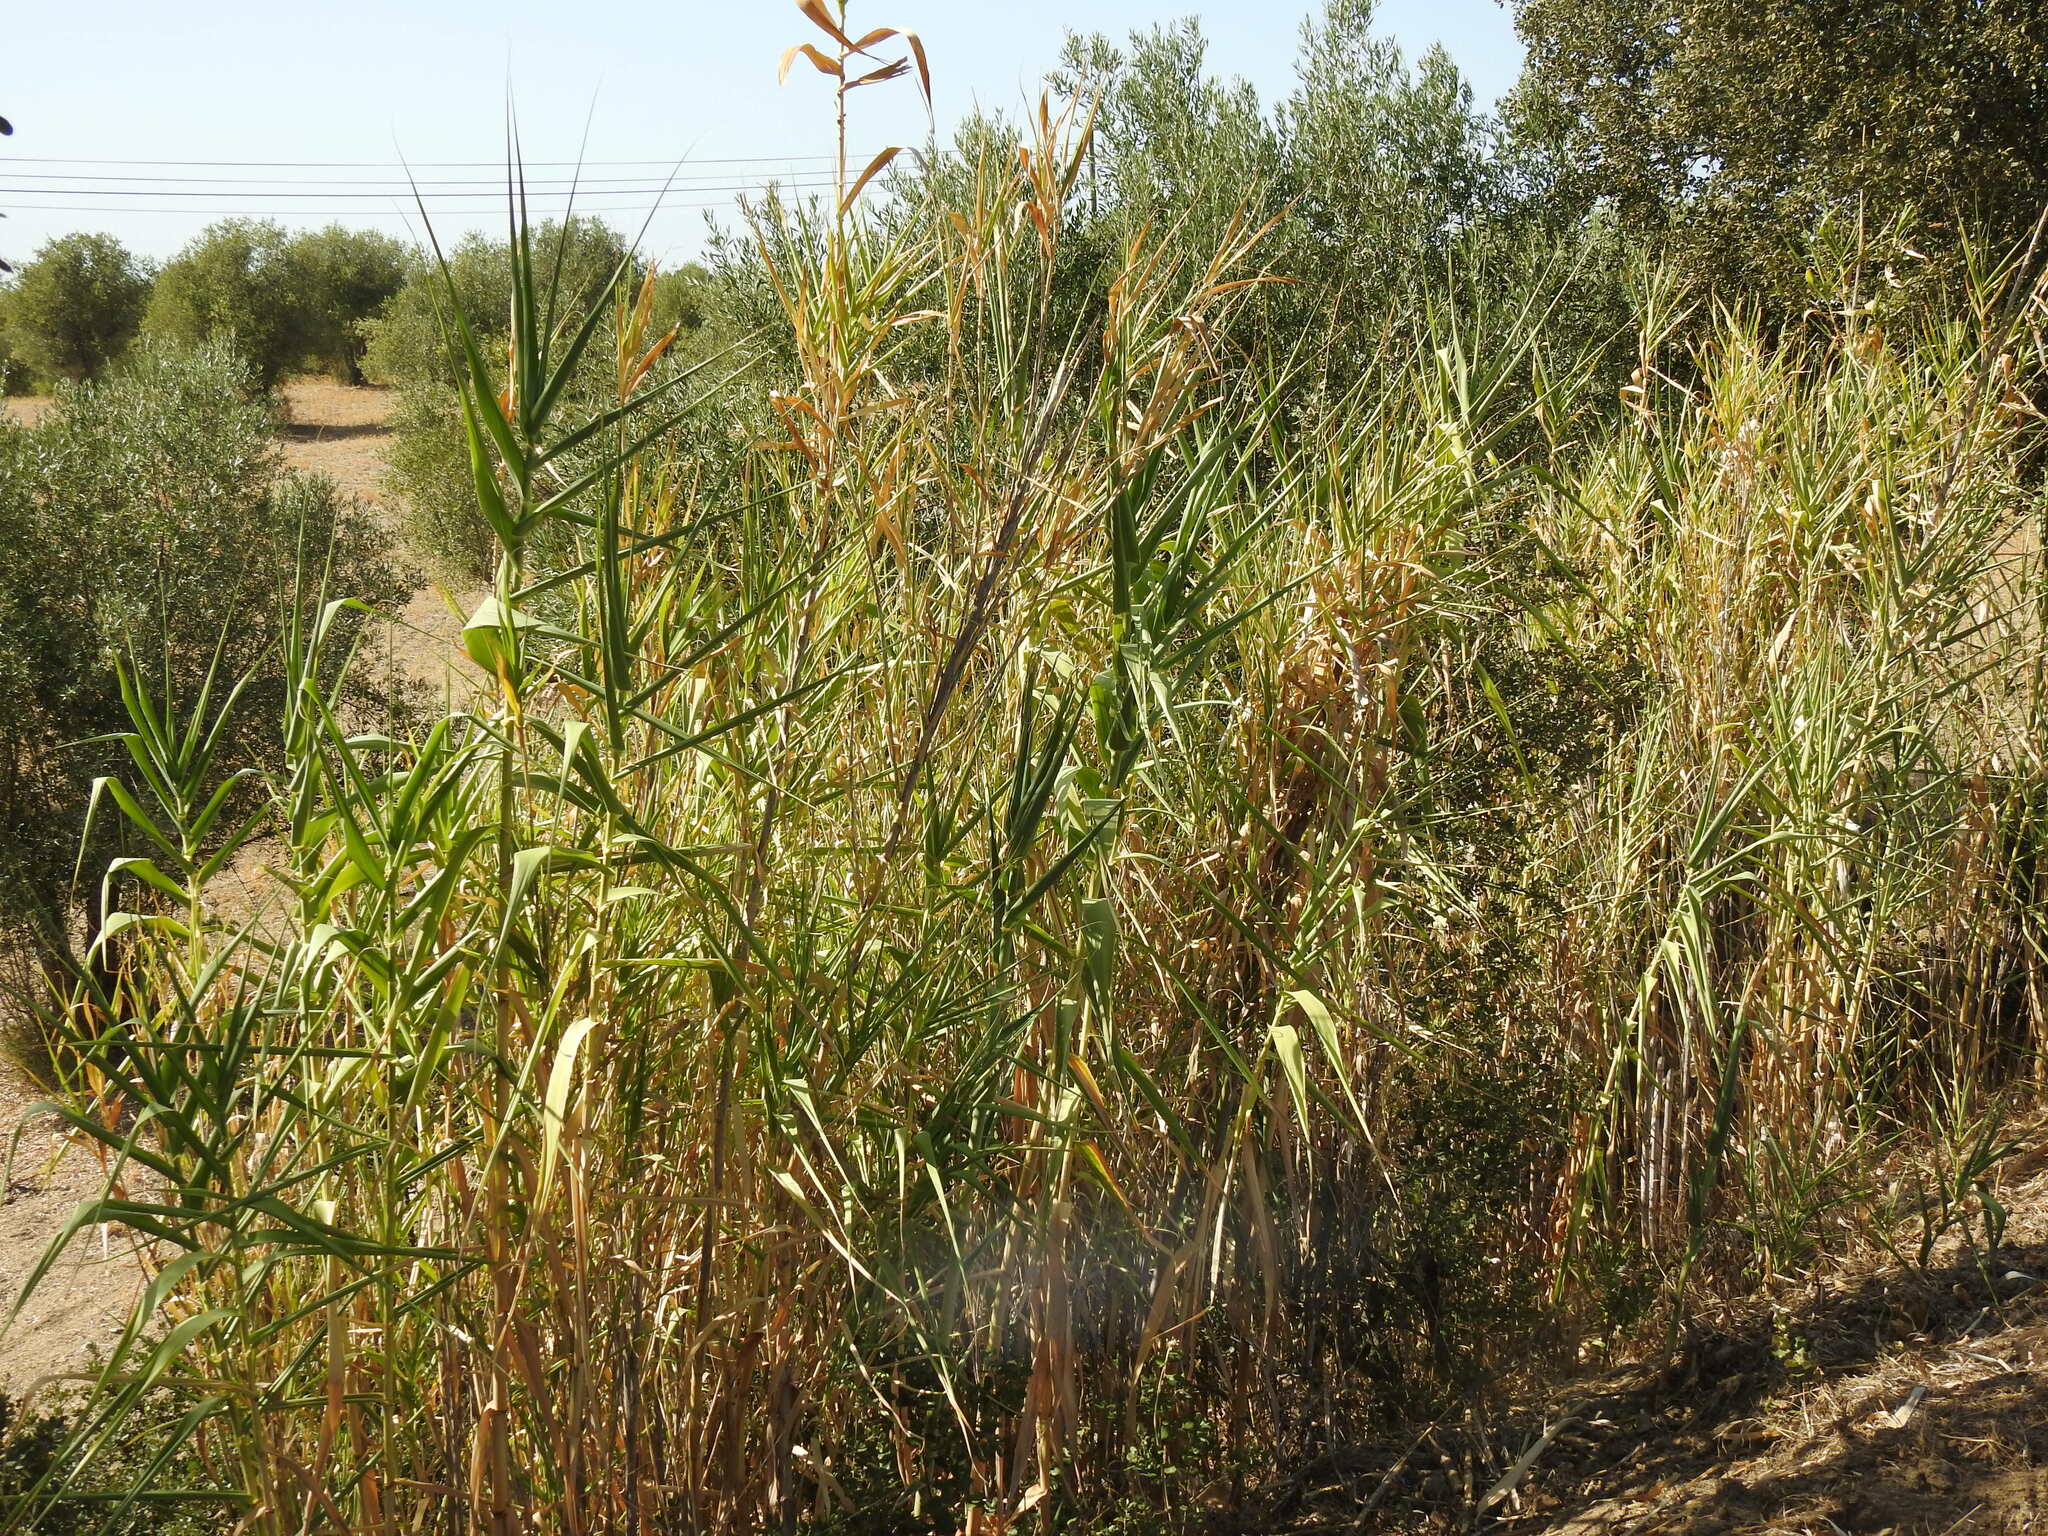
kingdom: Plantae
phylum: Tracheophyta
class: Liliopsida
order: Poales
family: Poaceae
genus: Arundo
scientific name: Arundo donax
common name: Giant reed
